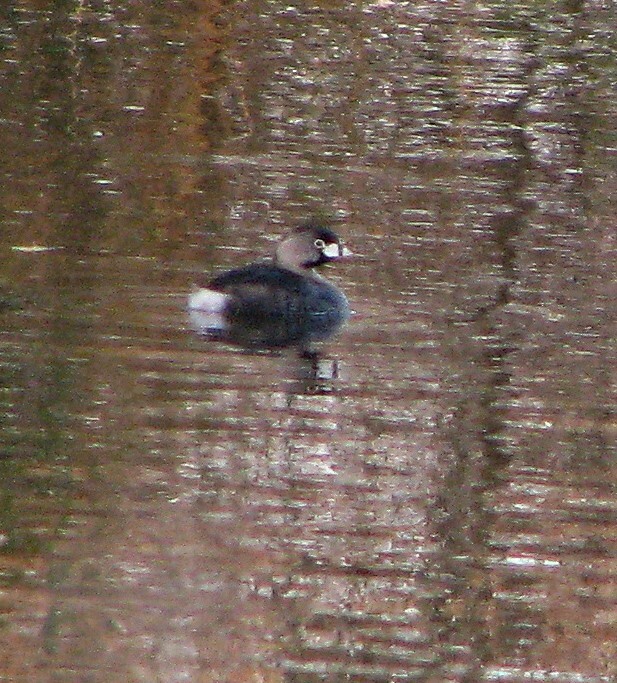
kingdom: Animalia
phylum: Chordata
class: Aves
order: Podicipediformes
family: Podicipedidae
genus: Podilymbus
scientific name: Podilymbus podiceps
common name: Pied-billed grebe
